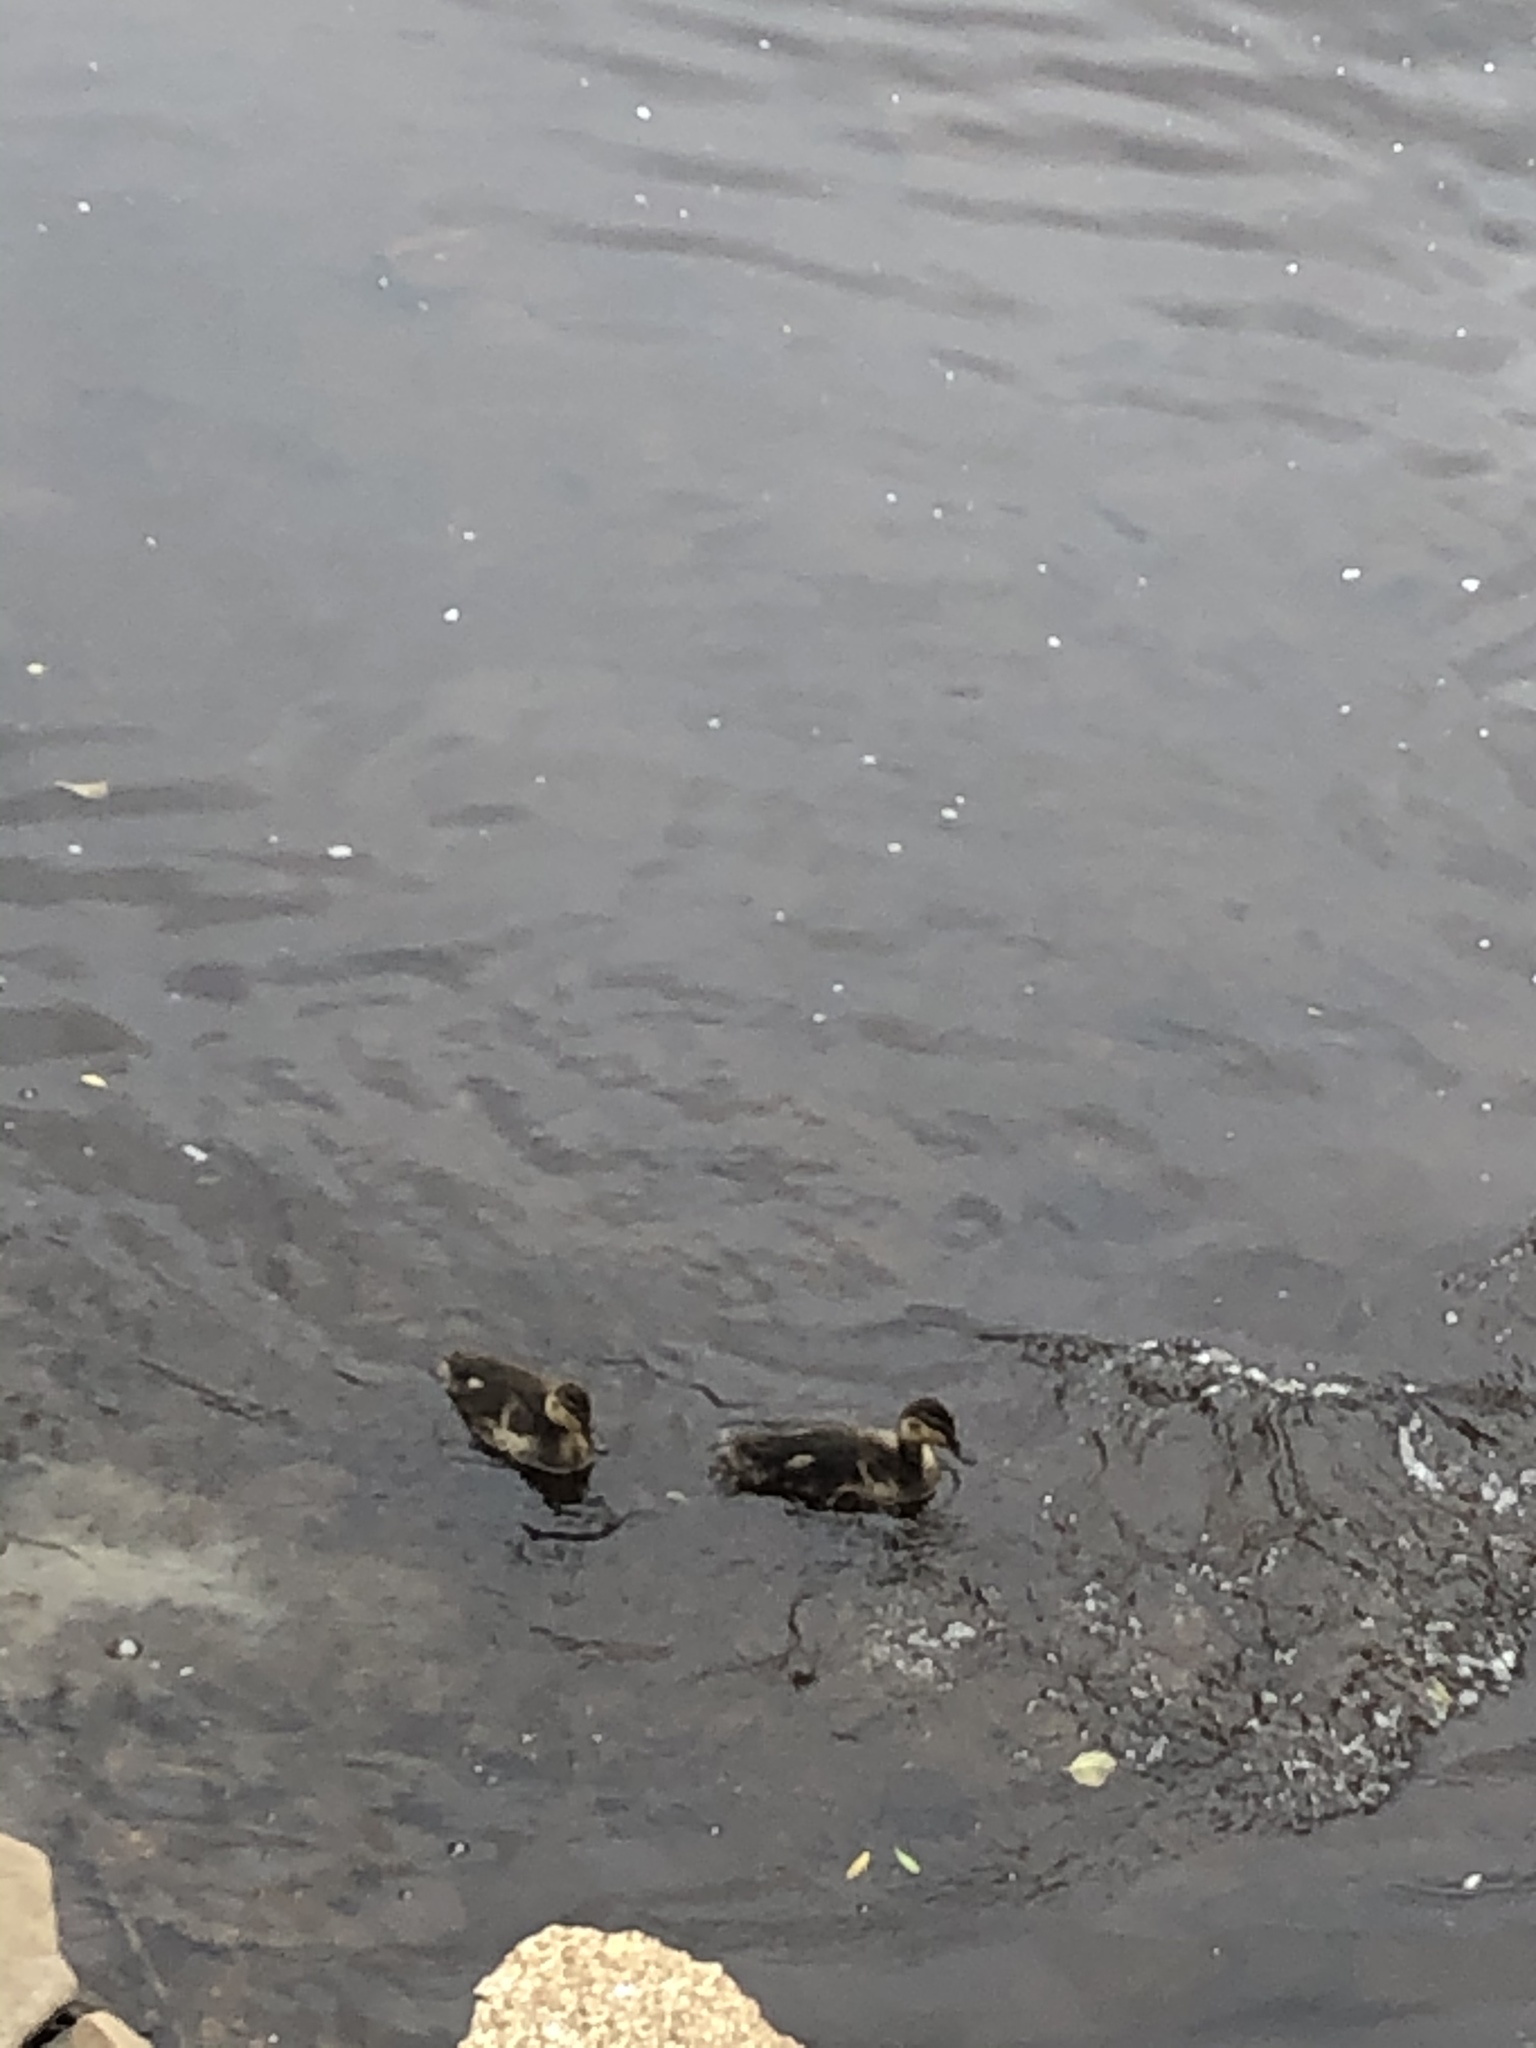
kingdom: Animalia
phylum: Chordata
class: Aves
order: Anseriformes
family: Anatidae
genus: Anas
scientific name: Anas platyrhynchos
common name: Mallard
